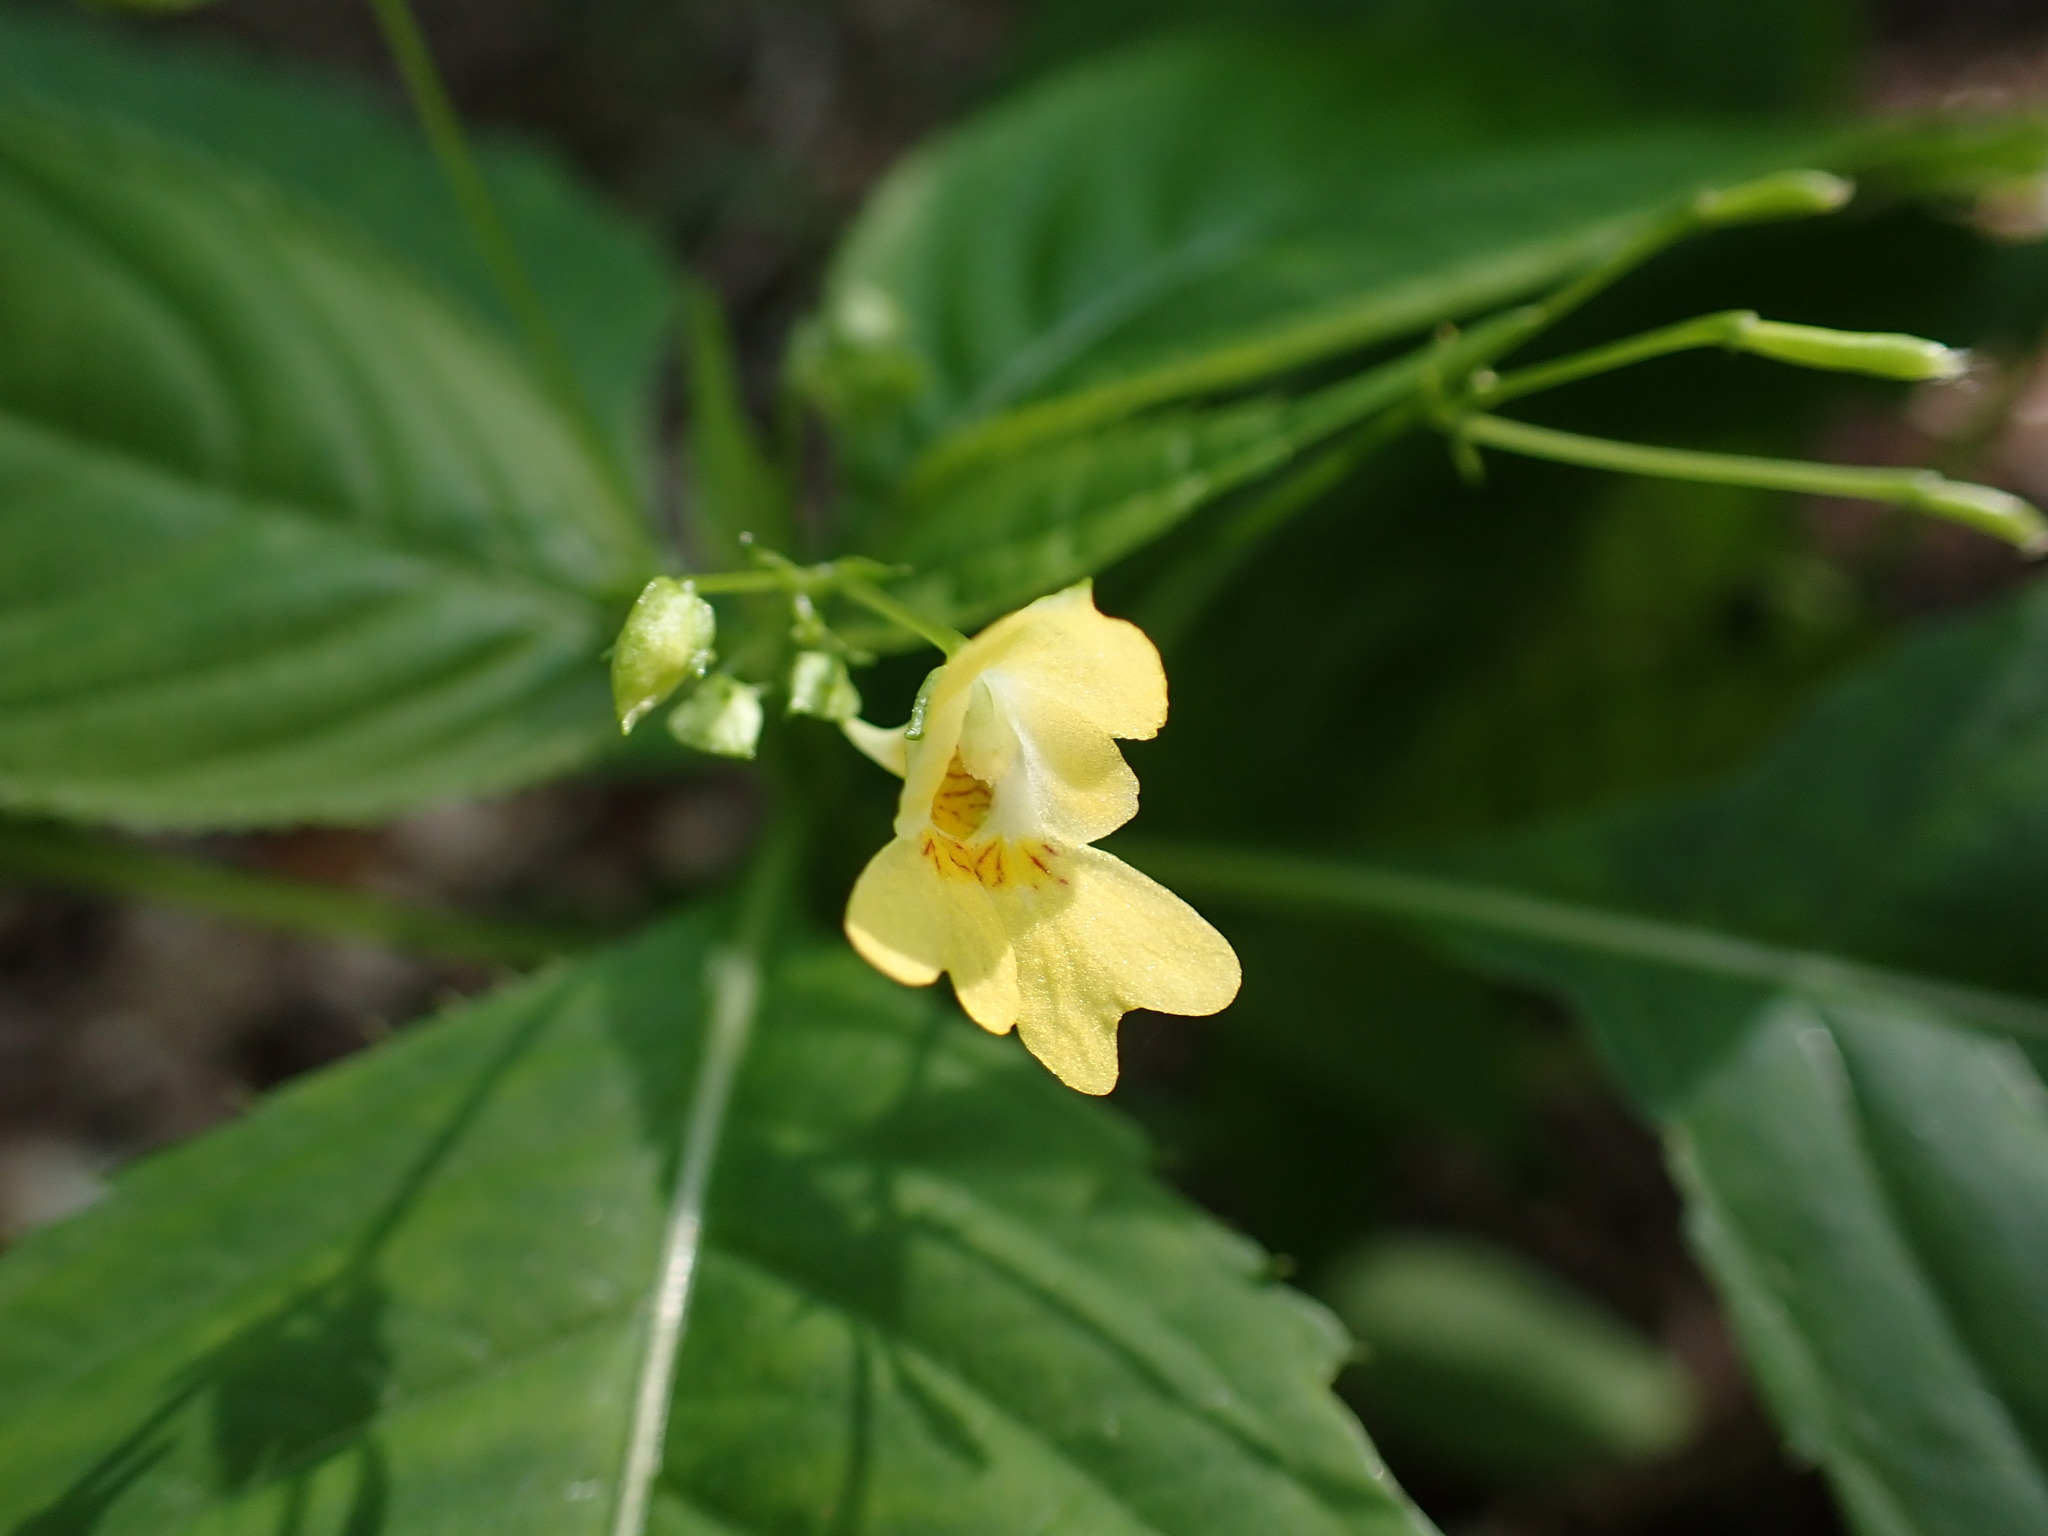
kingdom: Plantae
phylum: Tracheophyta
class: Magnoliopsida
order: Ericales
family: Balsaminaceae
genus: Impatiens
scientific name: Impatiens parviflora
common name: Small balsam
